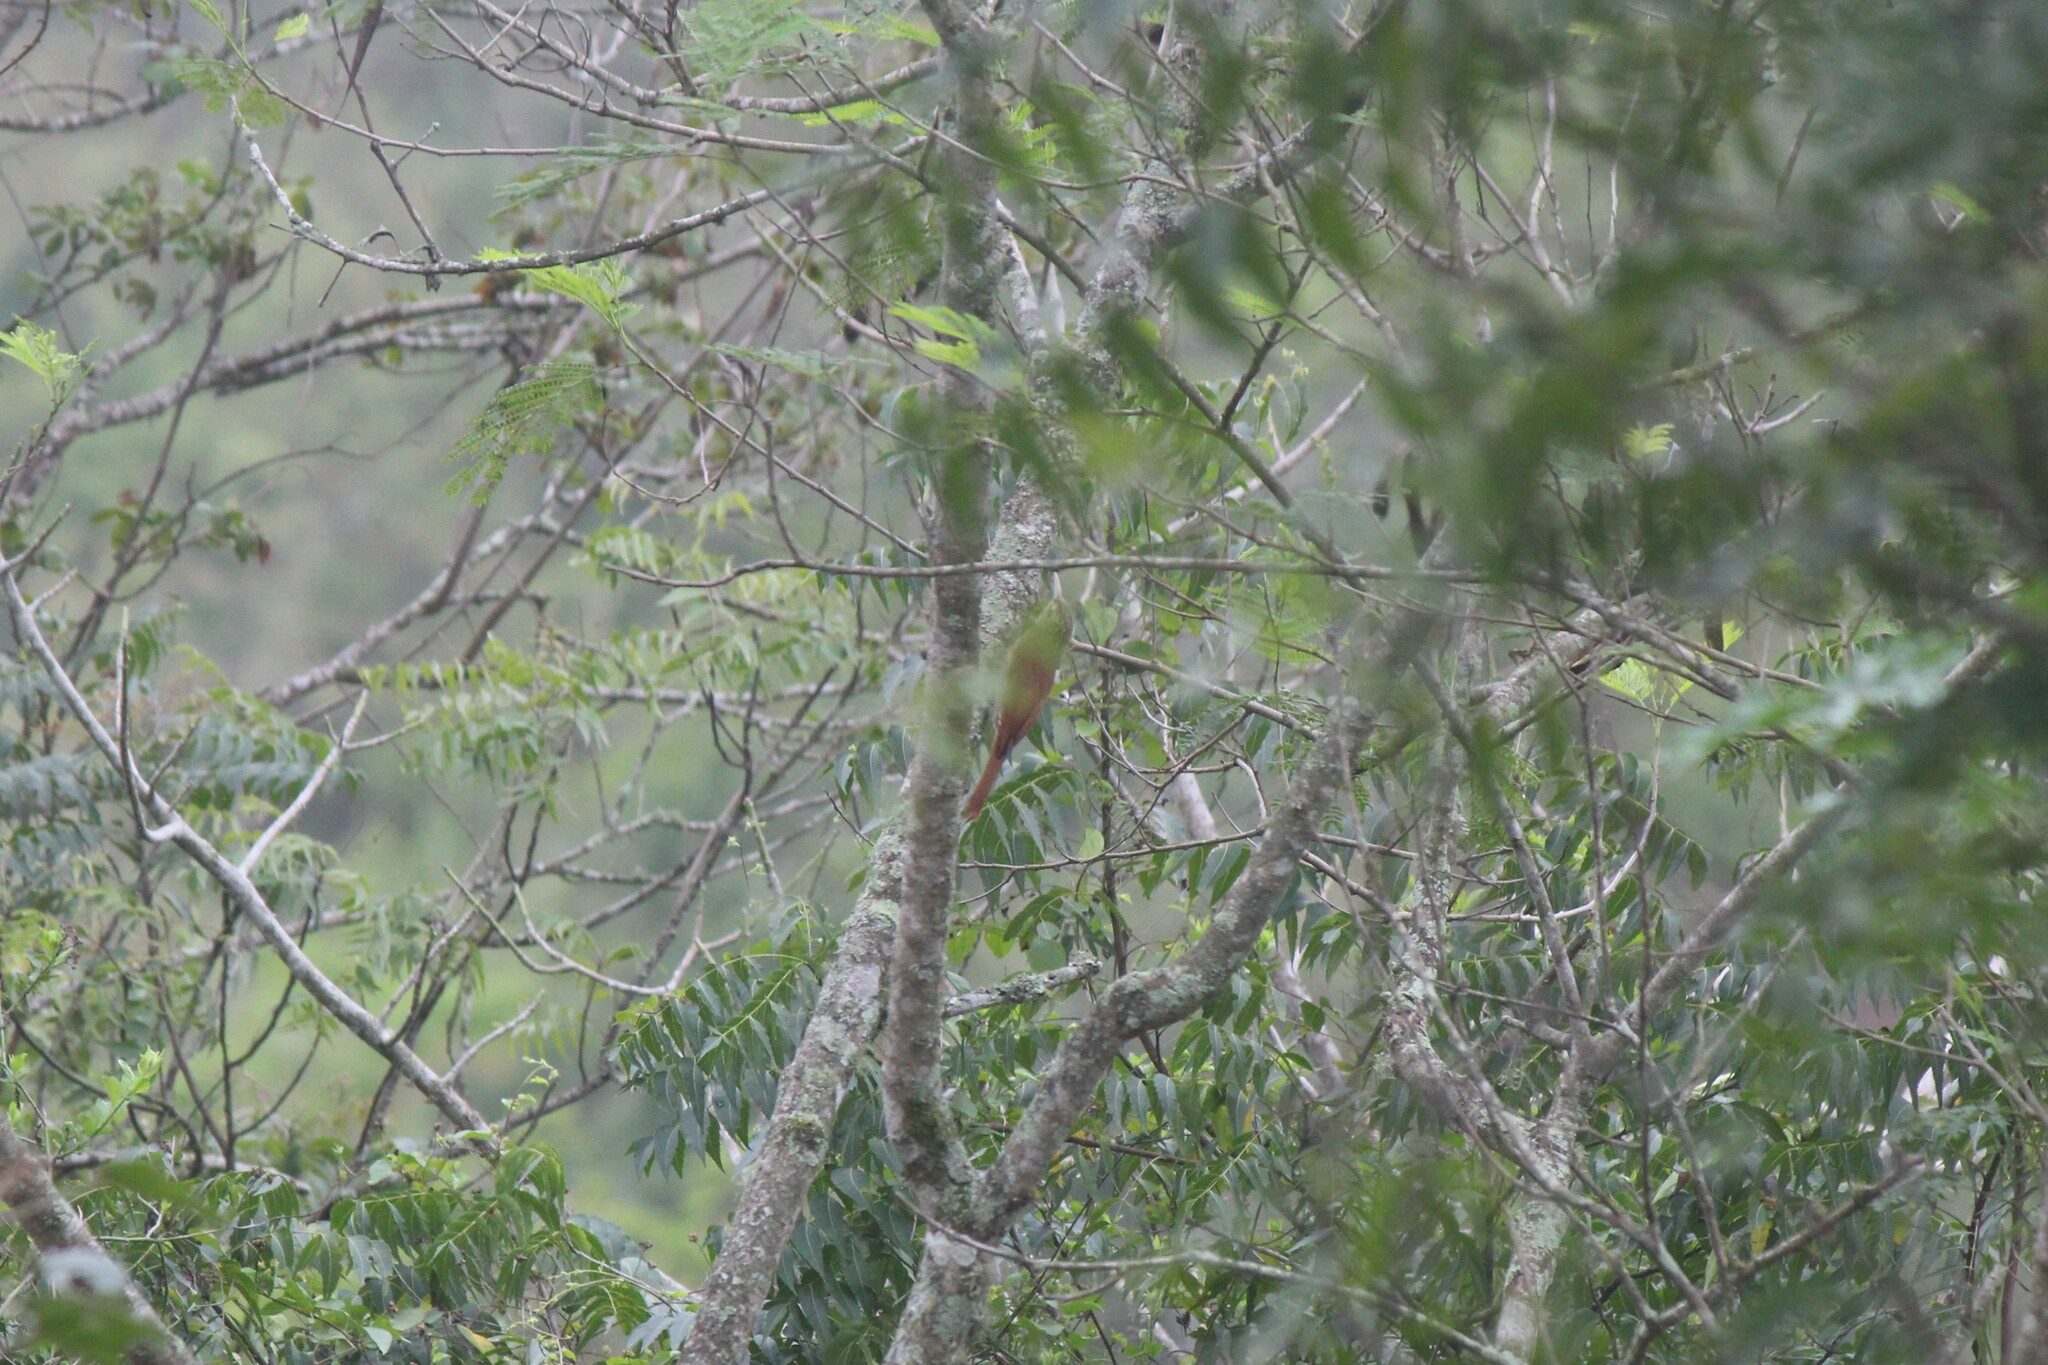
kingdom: Animalia
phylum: Chordata
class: Aves
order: Passeriformes
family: Furnariidae
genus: Lepidocolaptes
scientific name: Lepidocolaptes souleyetii
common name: Streak-headed woodcreeper
